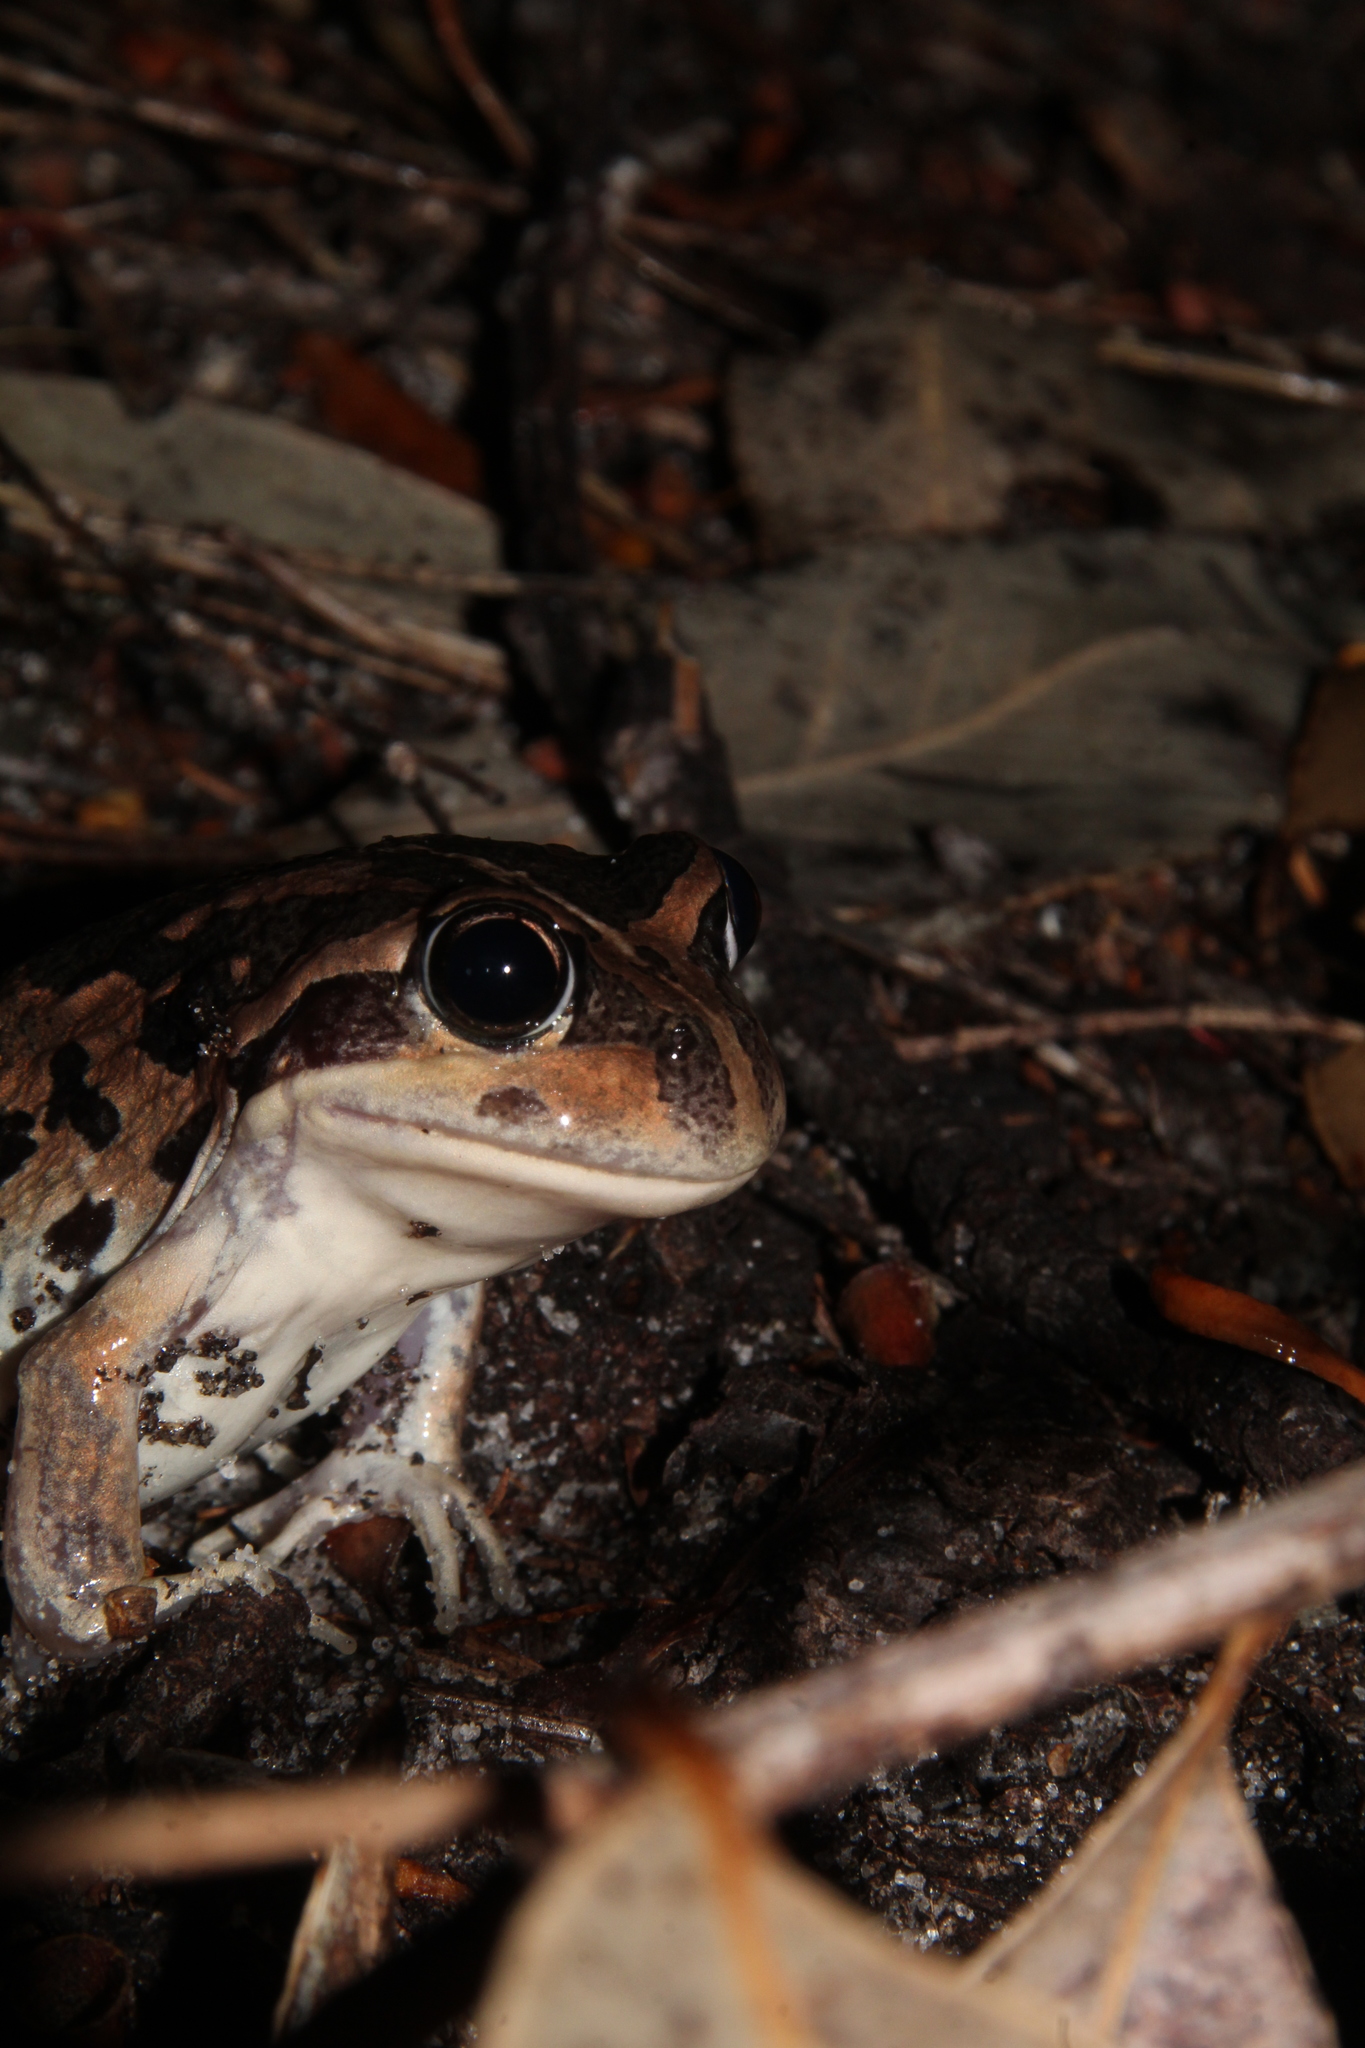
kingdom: Animalia
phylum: Chordata
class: Amphibia
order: Anura
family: Limnodynastidae
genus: Limnodynastes
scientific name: Limnodynastes dorsalis
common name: Banjo frog
